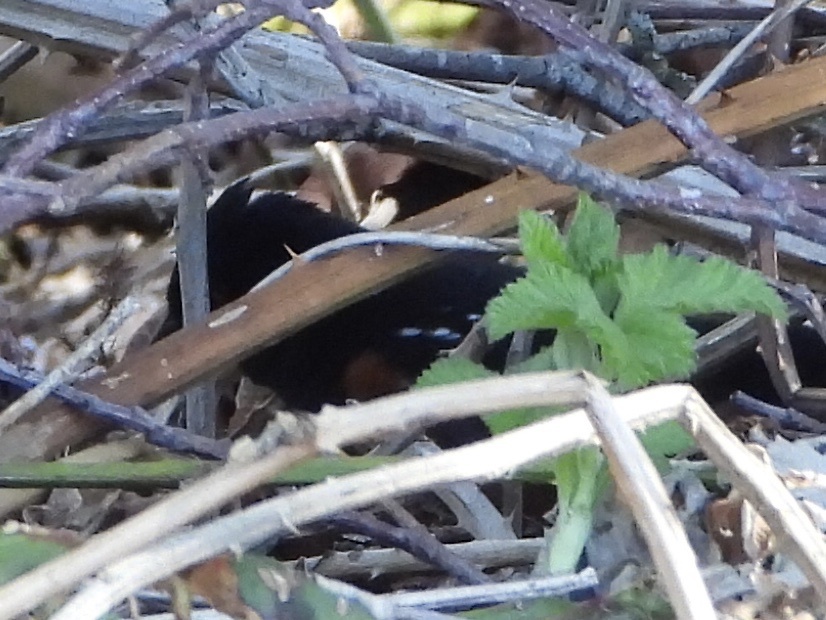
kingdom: Animalia
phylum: Chordata
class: Aves
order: Passeriformes
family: Passerellidae
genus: Pipilo
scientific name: Pipilo maculatus
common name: Spotted towhee
